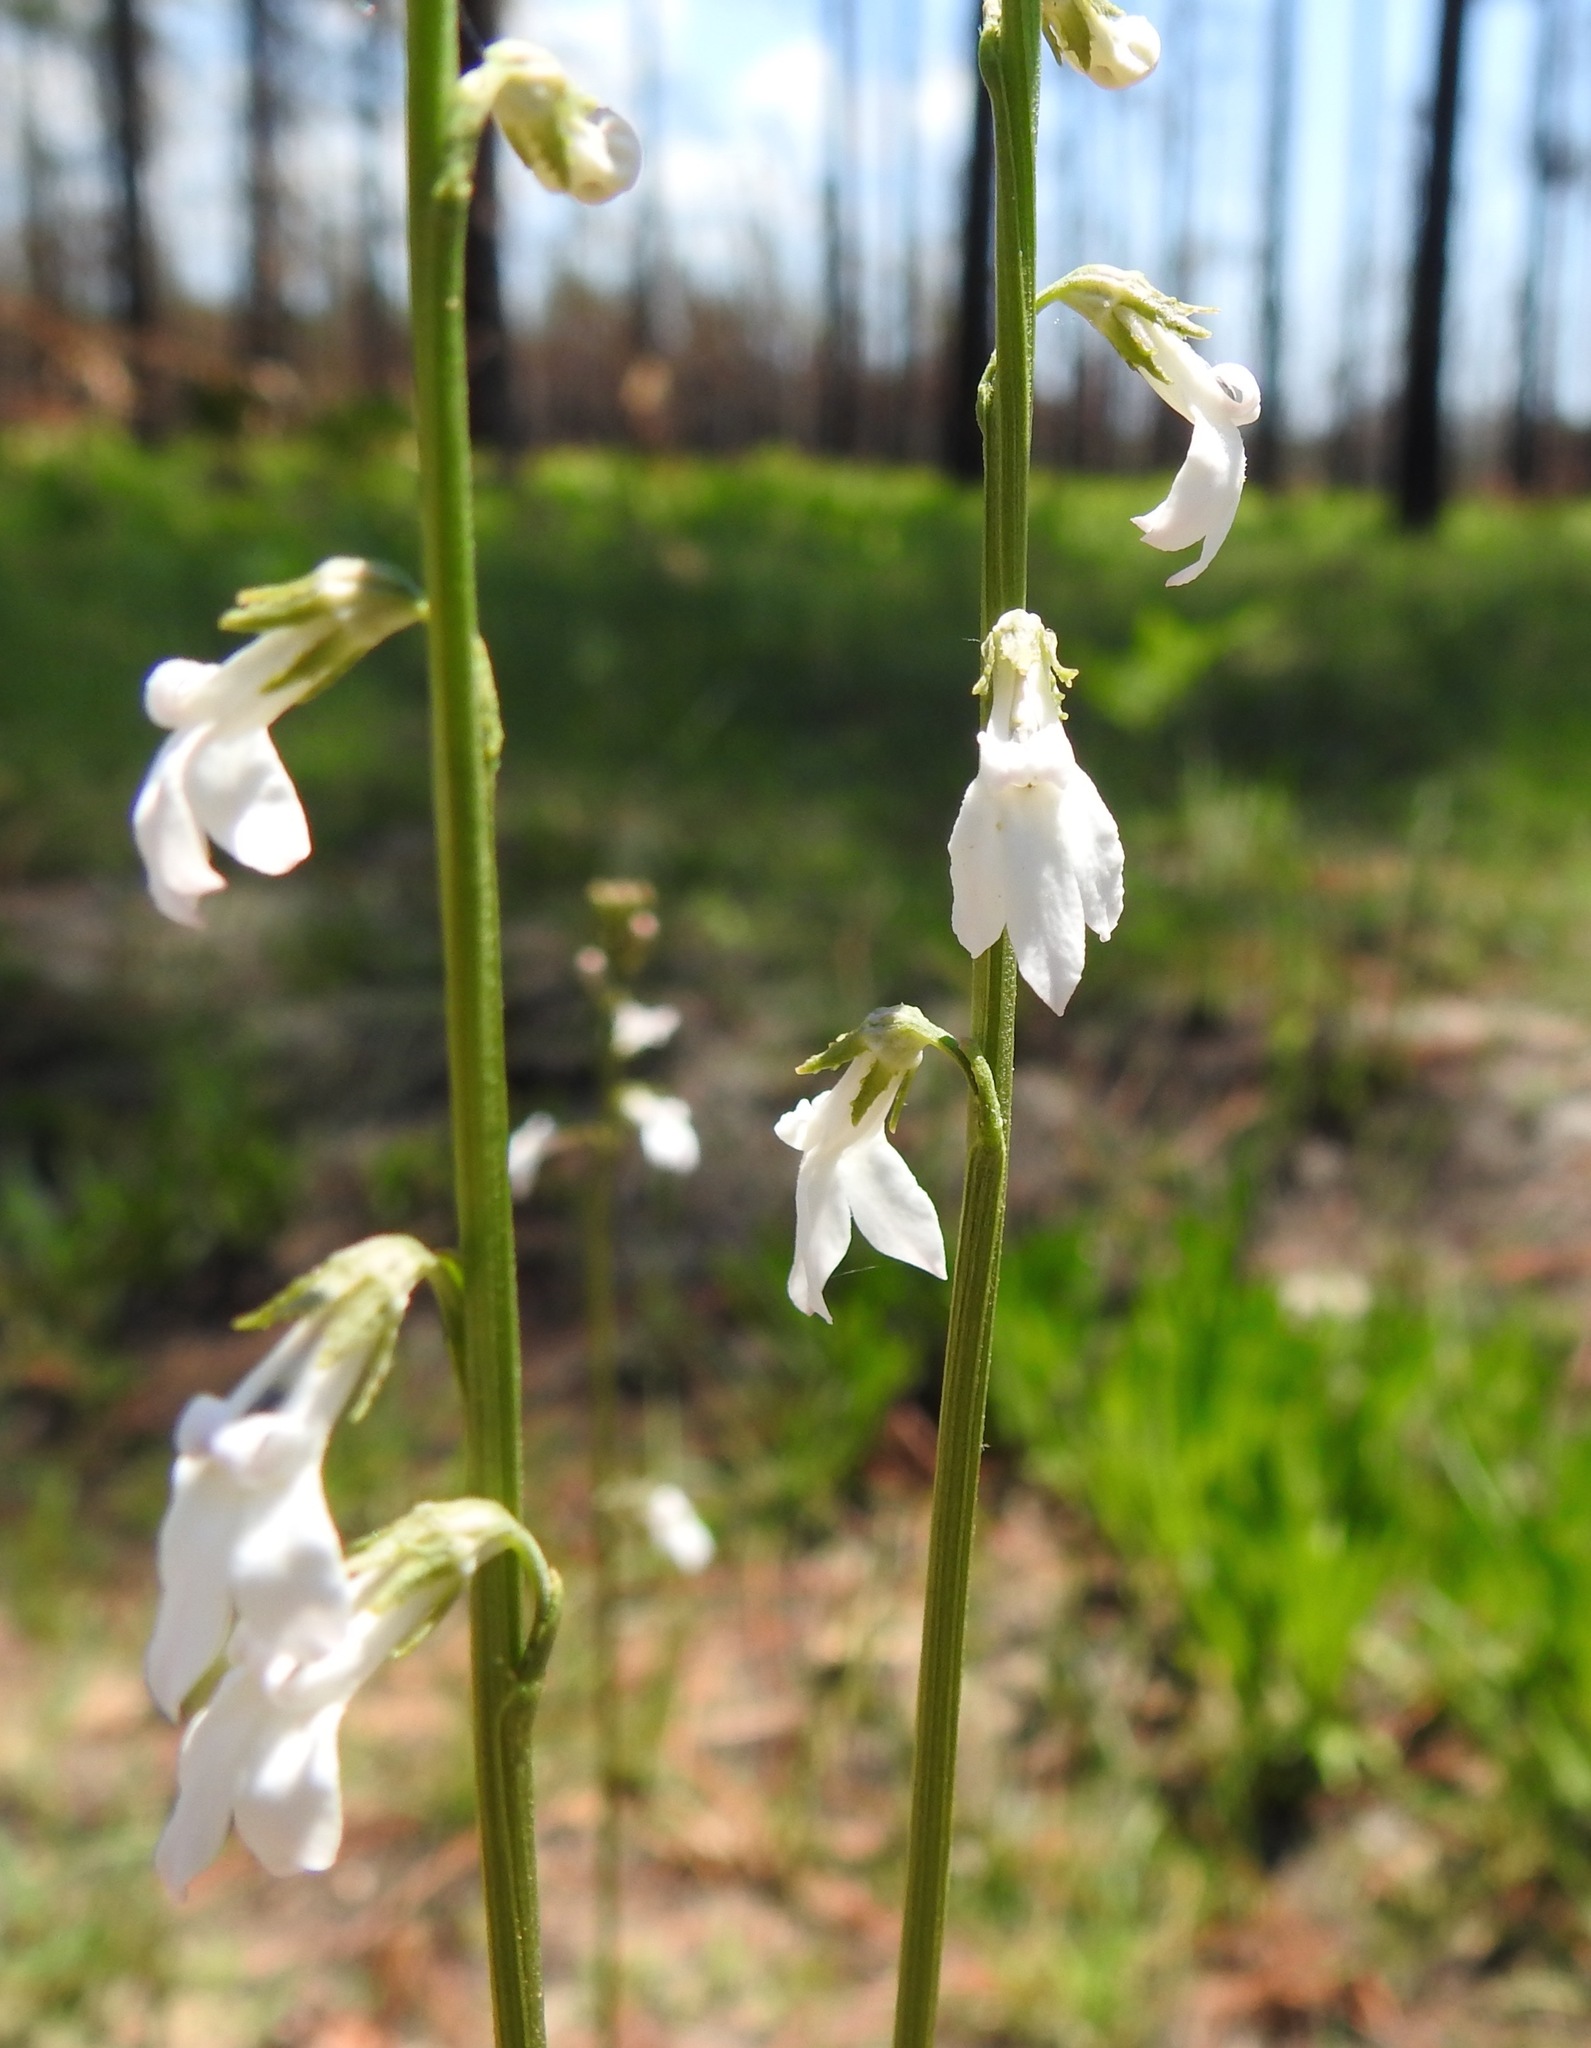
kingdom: Plantae
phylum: Tracheophyta
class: Magnoliopsida
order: Asterales
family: Campanulaceae
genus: Lobelia
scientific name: Lobelia paludosa
